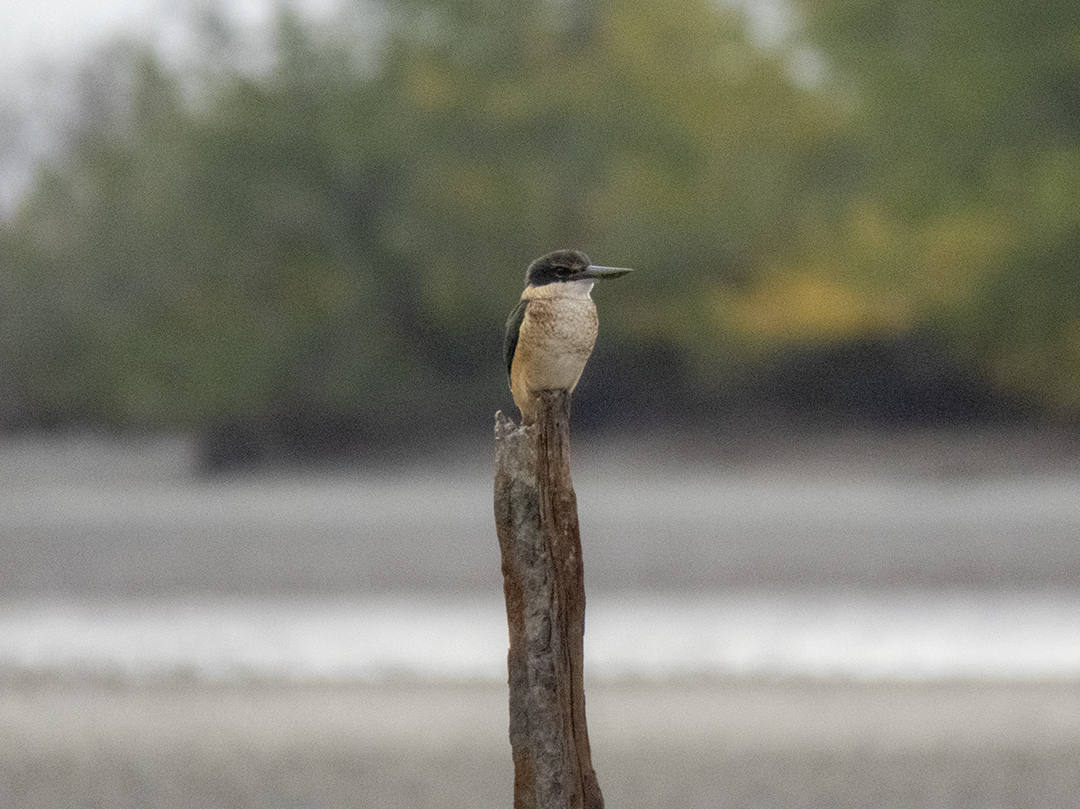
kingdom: Animalia
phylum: Chordata
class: Aves
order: Coraciiformes
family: Alcedinidae
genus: Todiramphus
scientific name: Todiramphus sanctus
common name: Sacred kingfisher
